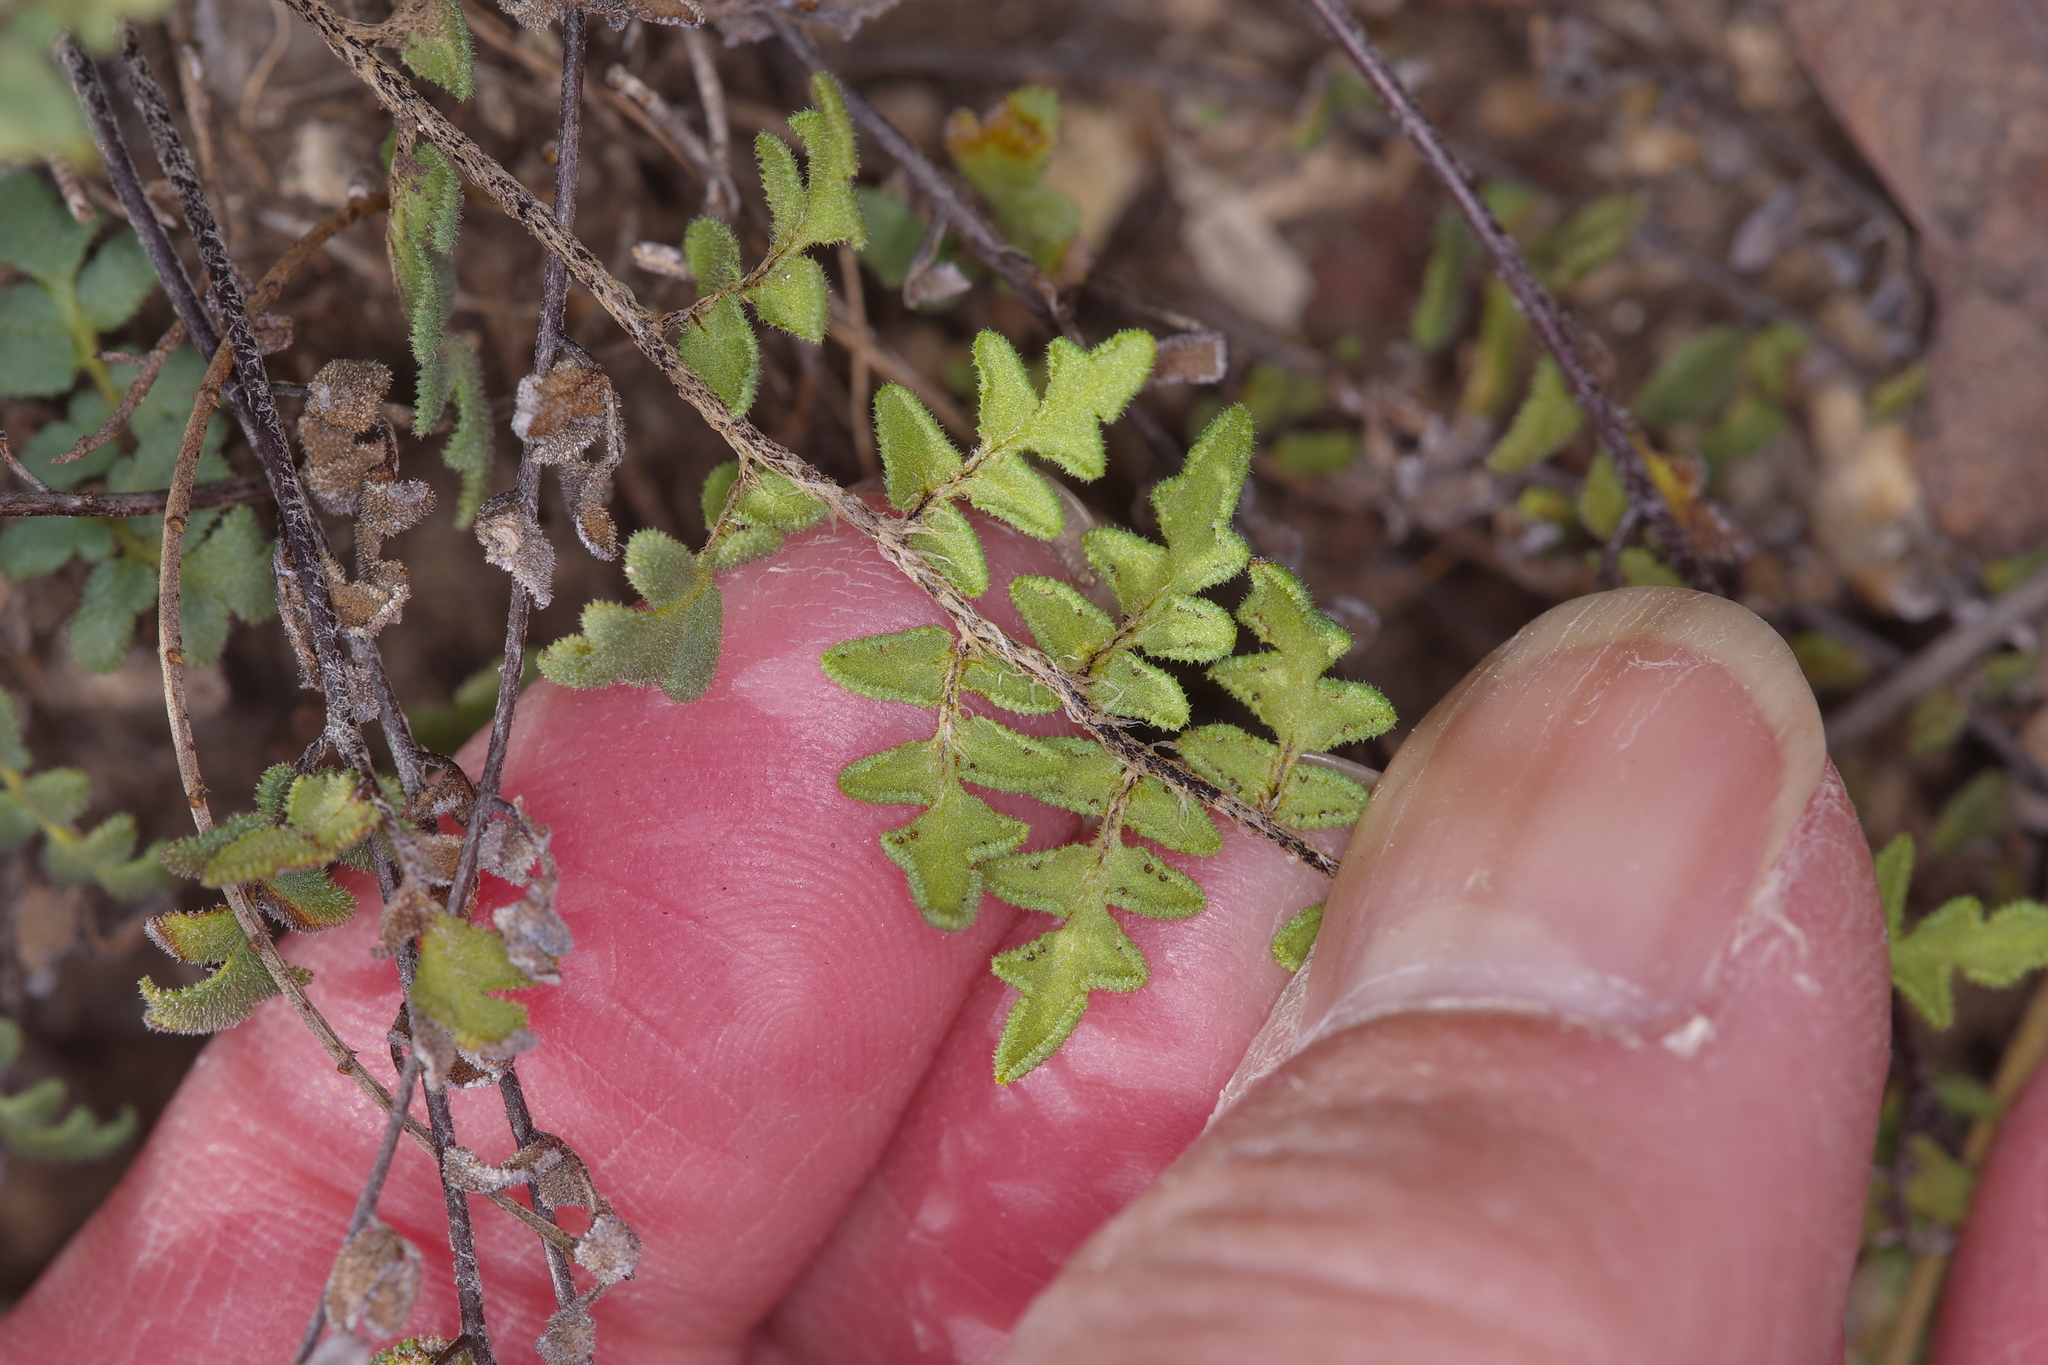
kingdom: Plantae
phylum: Tracheophyta
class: Polypodiopsida
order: Polypodiales
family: Pteridaceae
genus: Myriopteris
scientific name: Myriopteris scabra
